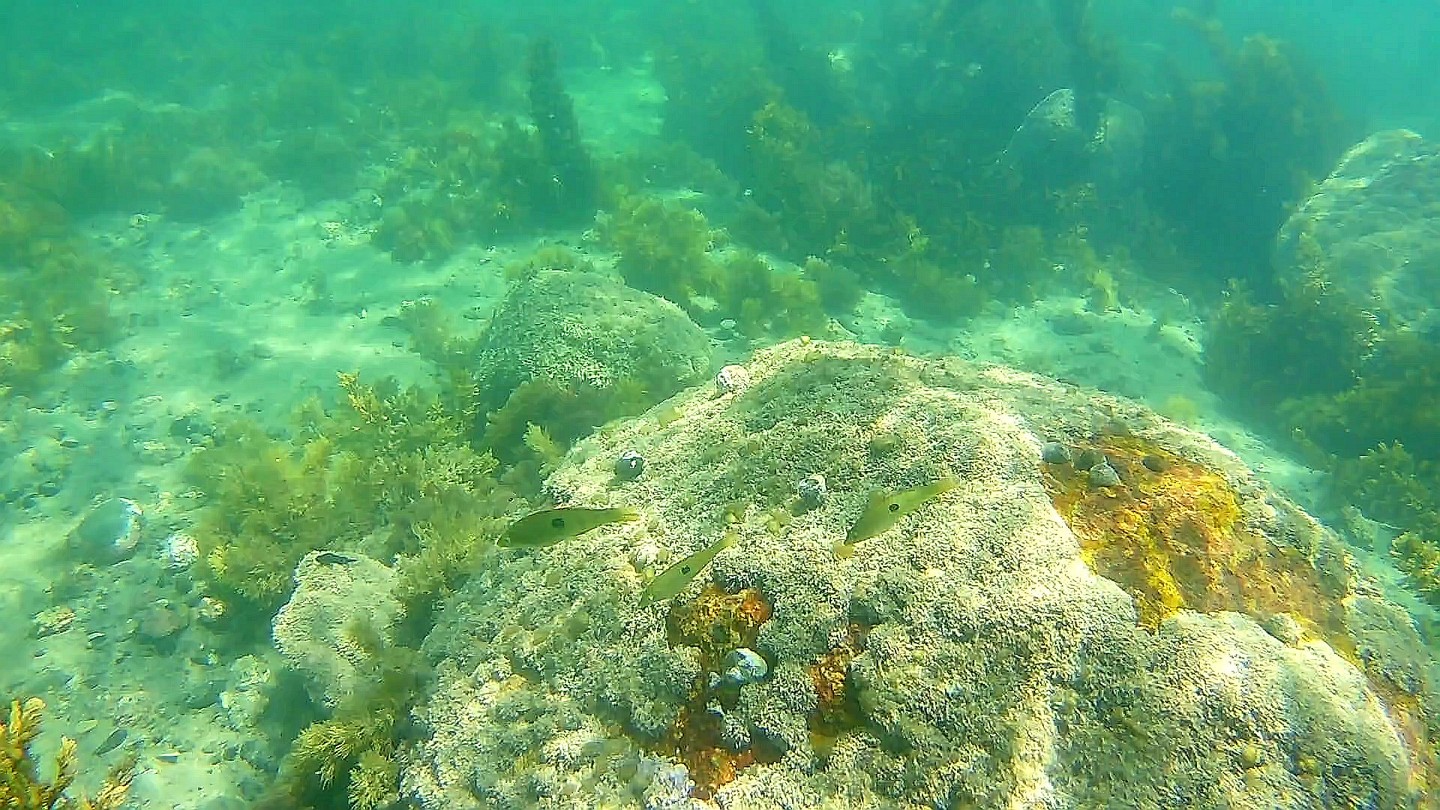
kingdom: Animalia
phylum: Chordata
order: Perciformes
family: Labridae
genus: Notolabrus
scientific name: Notolabrus celidotus
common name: Spotty
